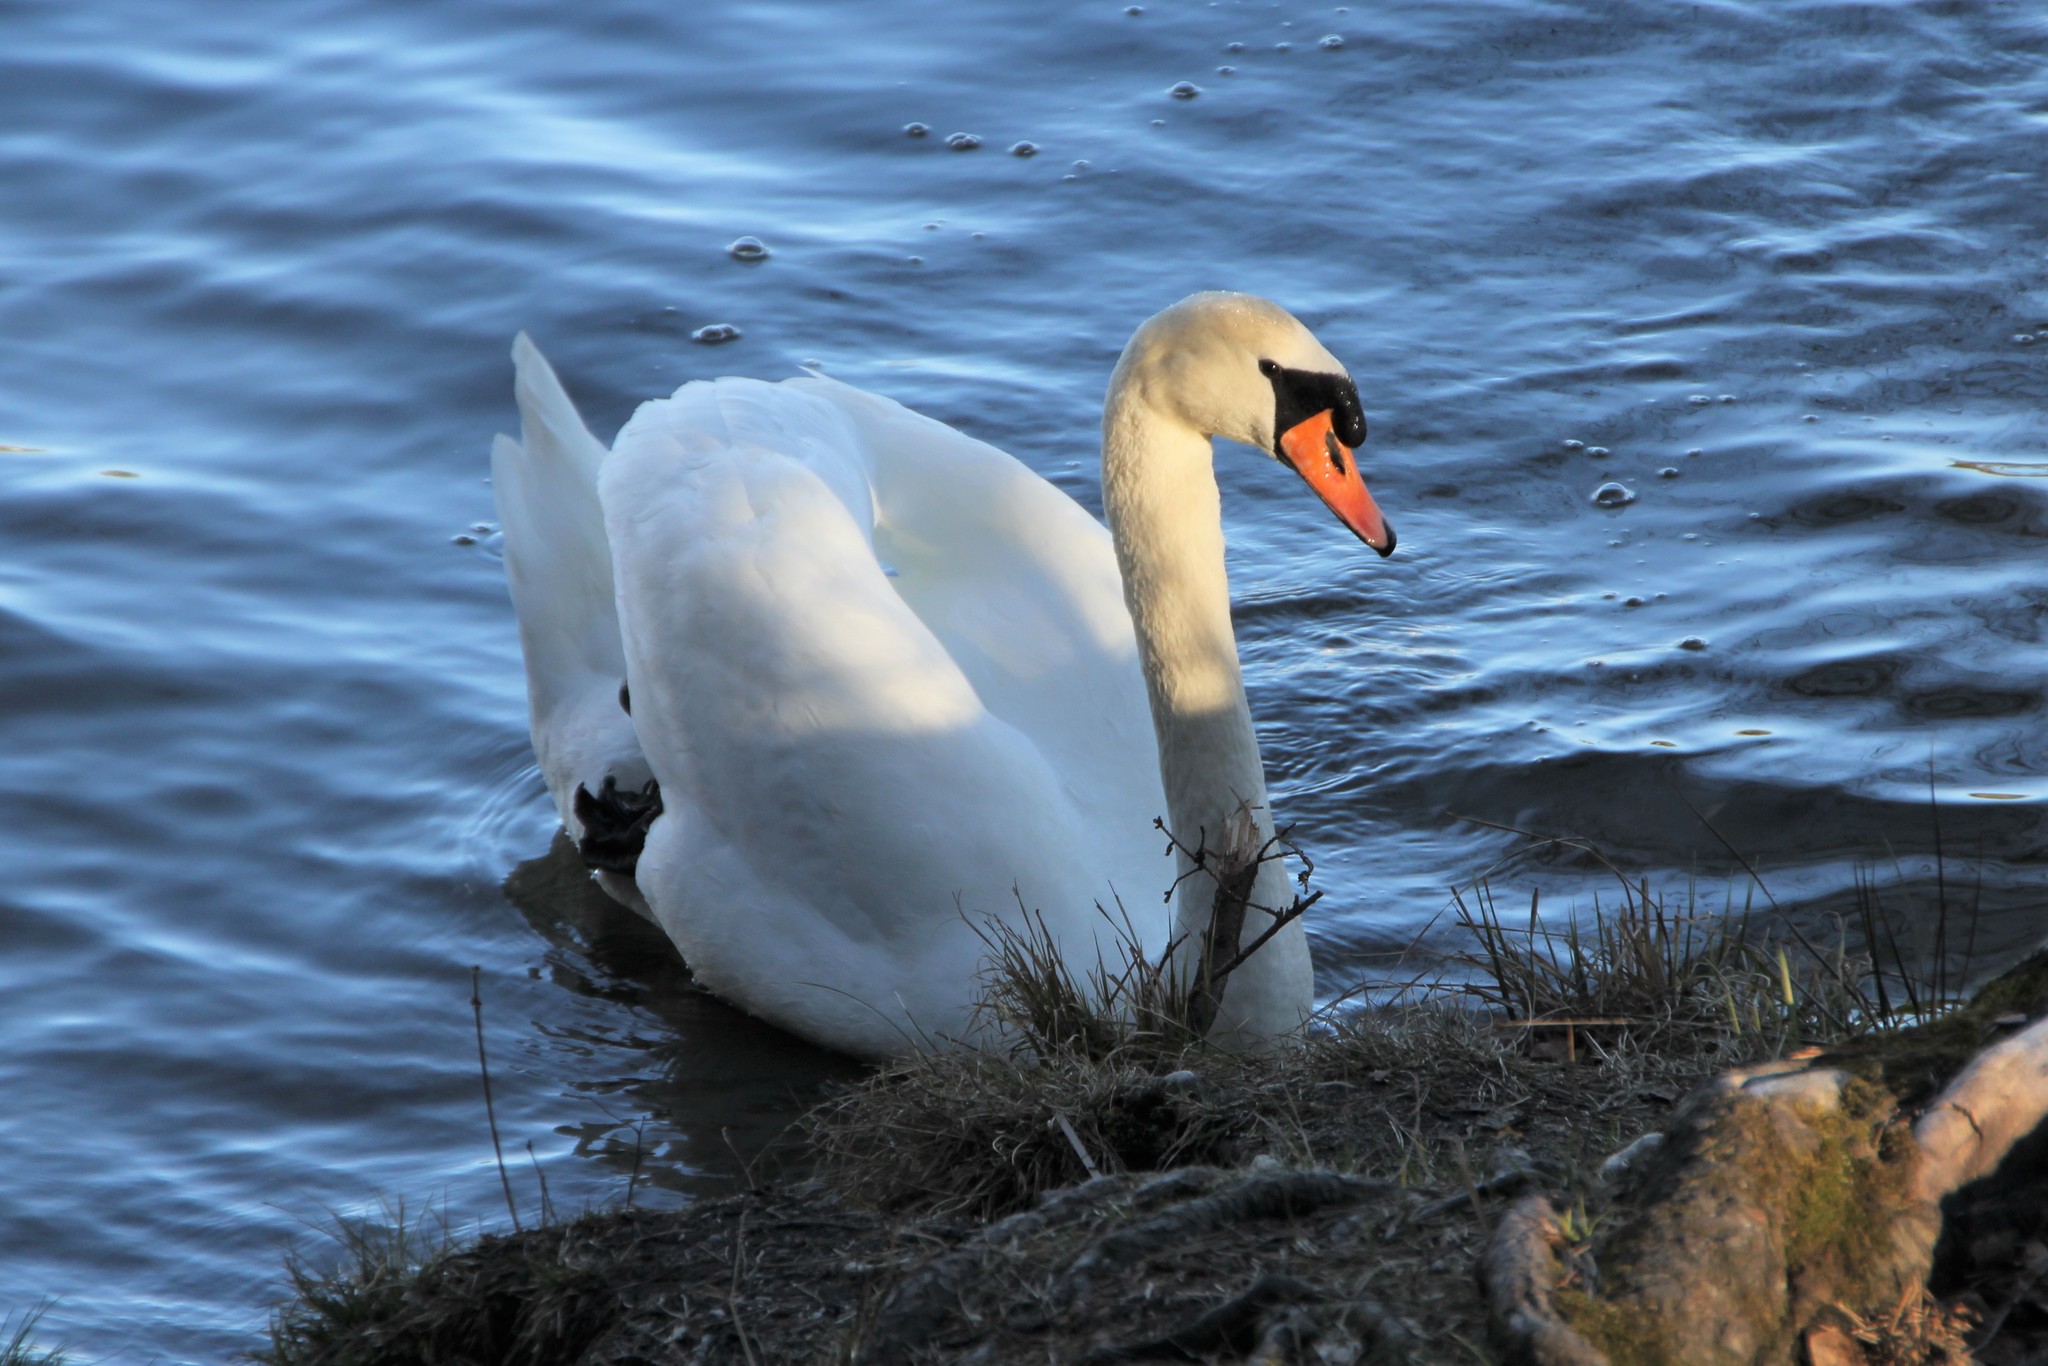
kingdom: Animalia
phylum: Chordata
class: Aves
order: Anseriformes
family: Anatidae
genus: Cygnus
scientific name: Cygnus olor
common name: Mute swan
